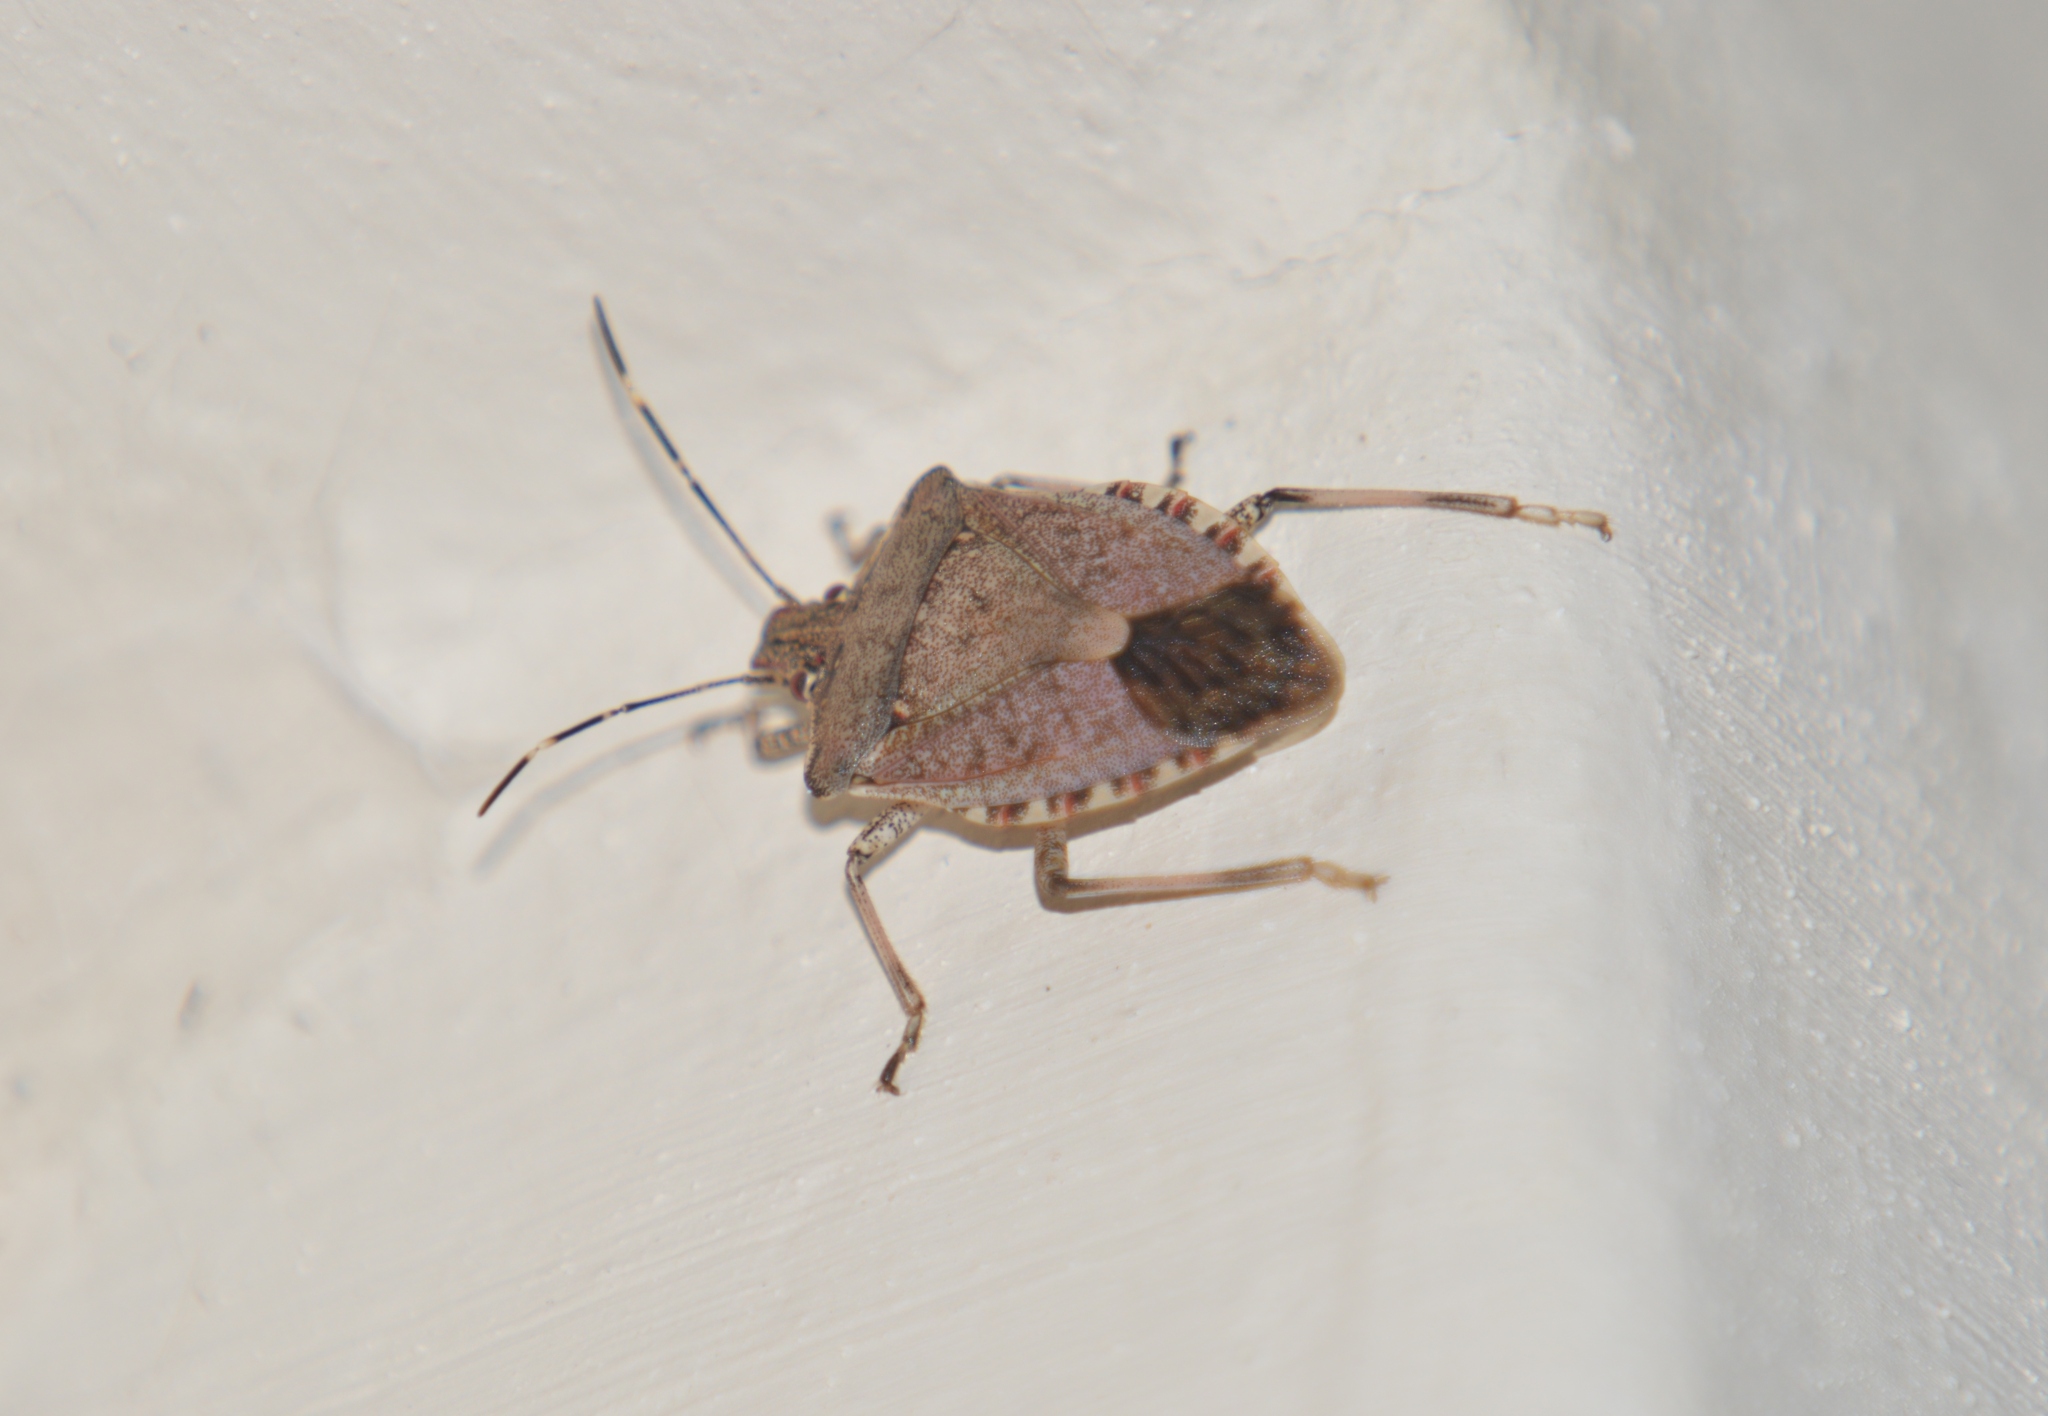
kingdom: Animalia
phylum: Arthropoda
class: Insecta
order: Hemiptera
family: Pentatomidae
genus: Halyomorpha
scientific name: Halyomorpha halys
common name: Brown marmorated stink bug
